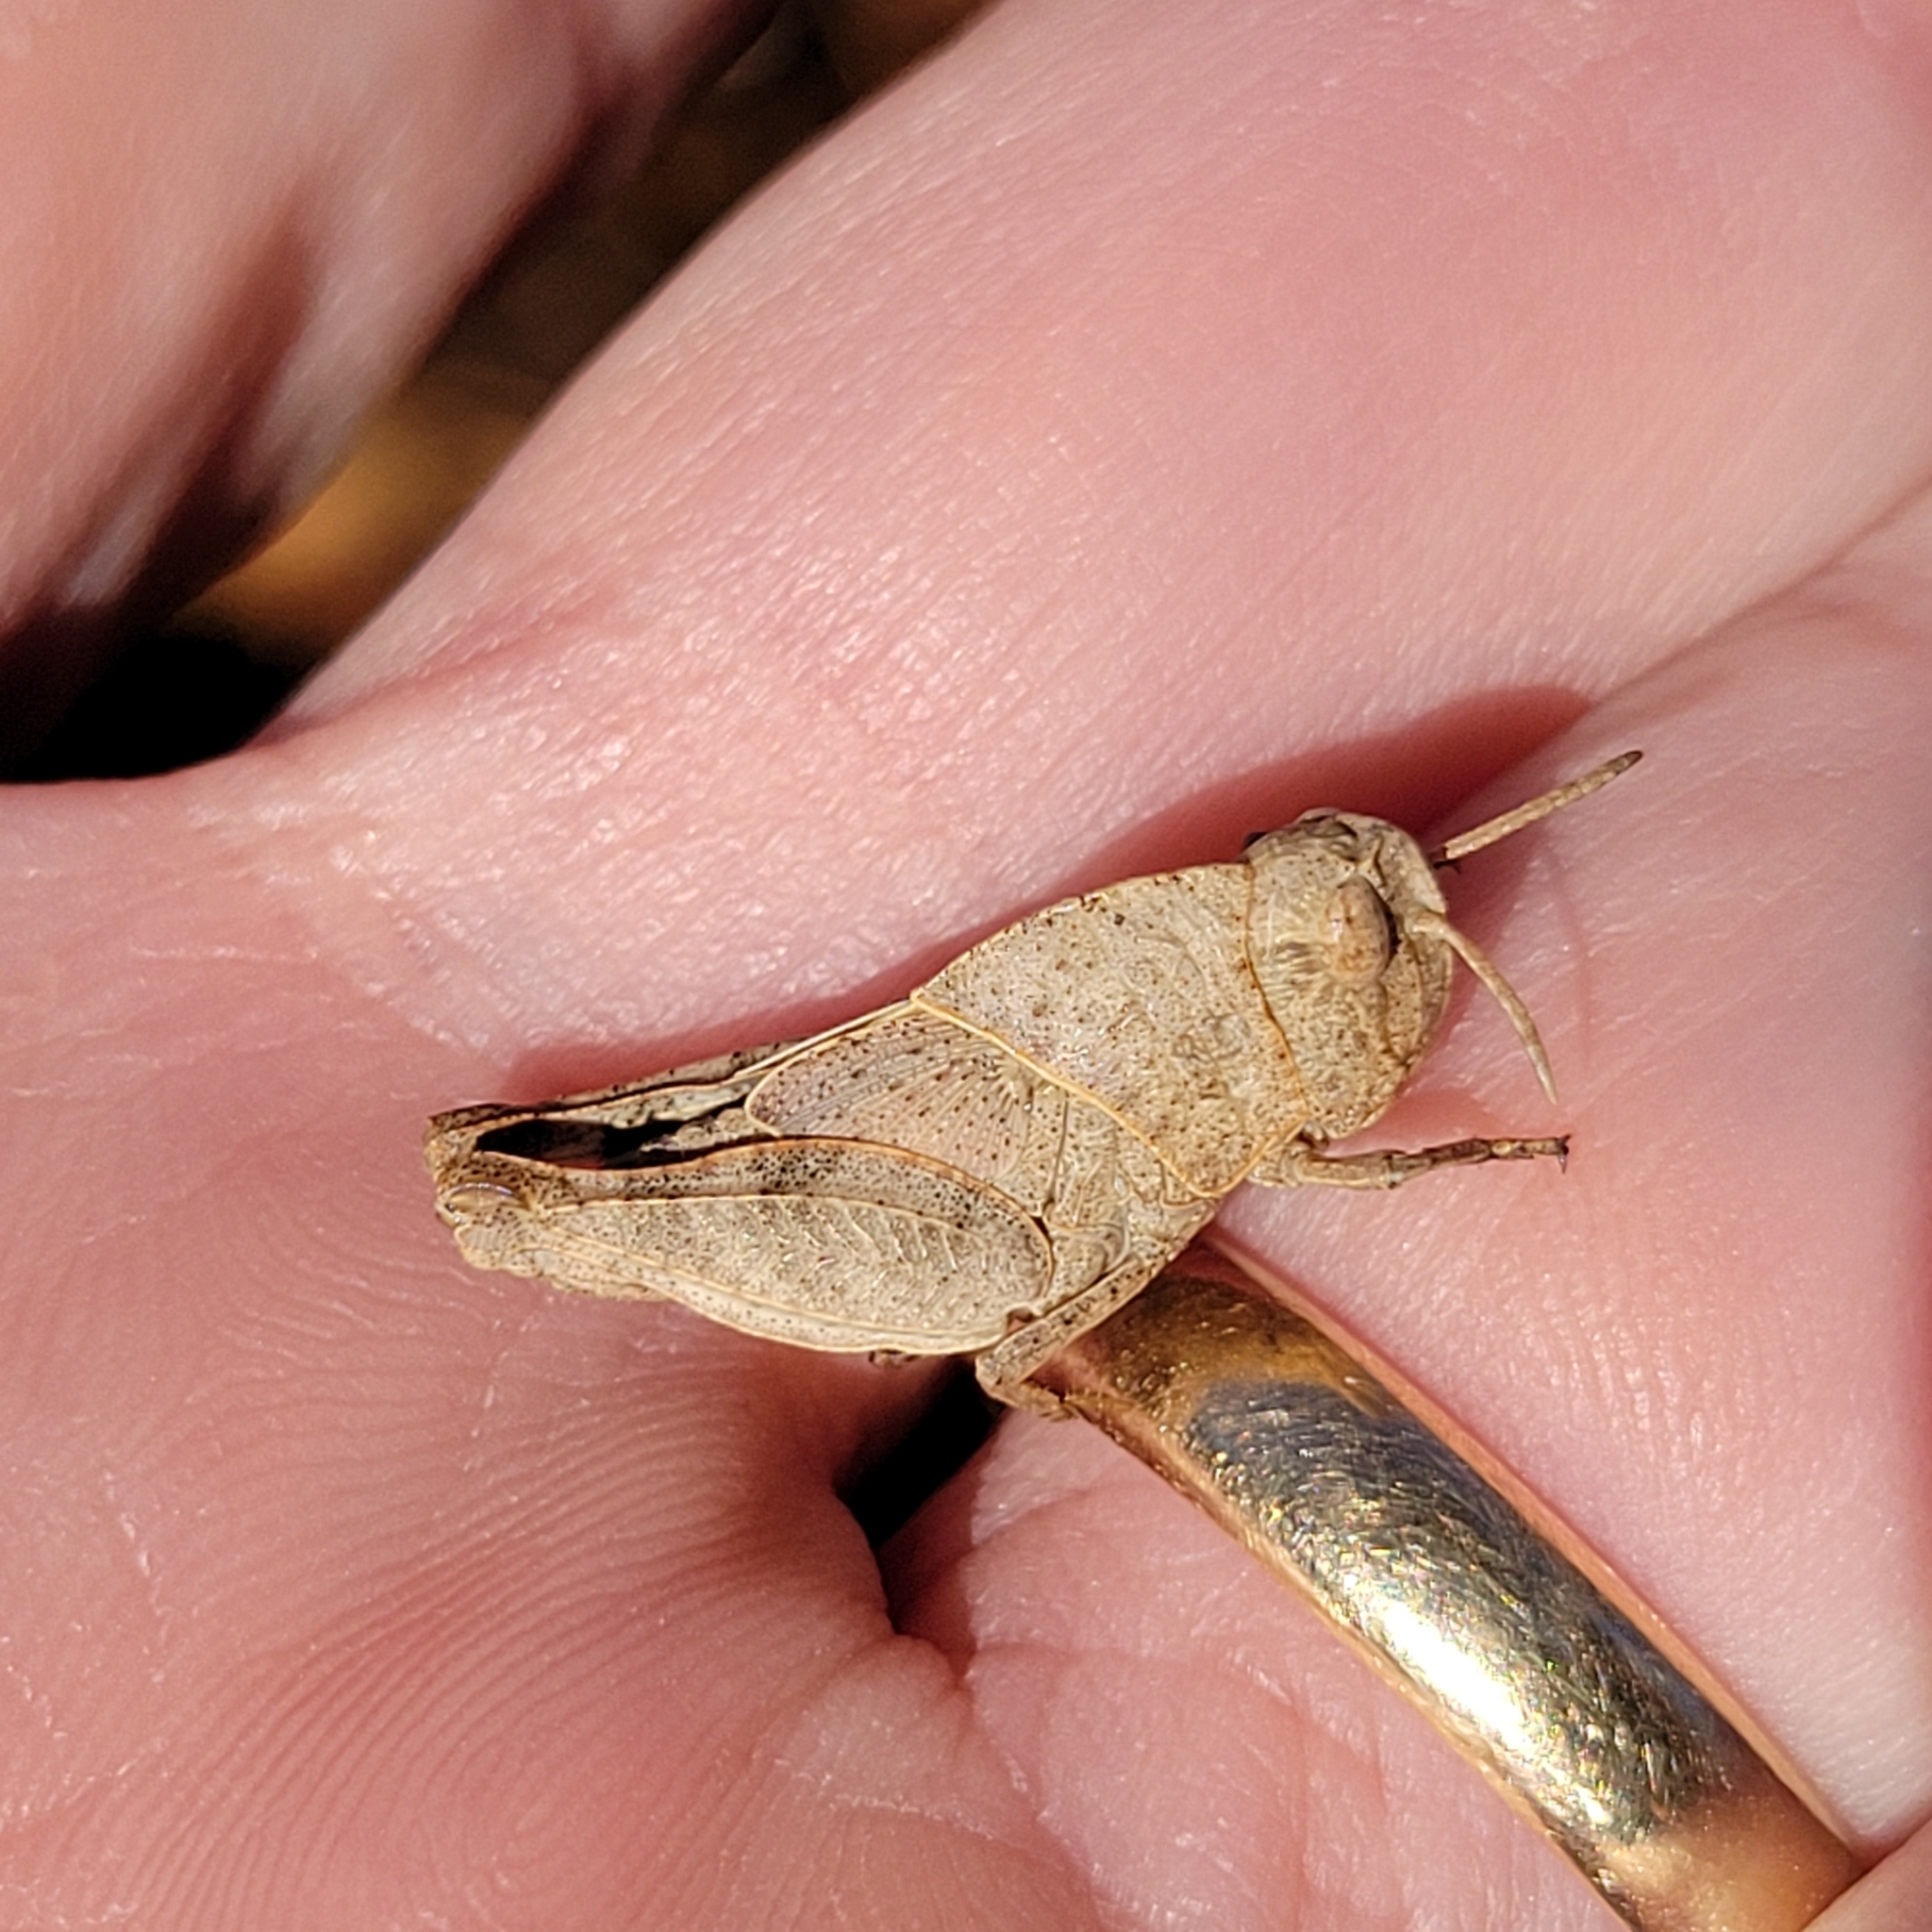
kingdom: Animalia
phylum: Arthropoda
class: Insecta
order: Orthoptera
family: Acrididae
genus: Arphia
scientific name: Arphia sulphurea
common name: Spring yellow-winged locust
